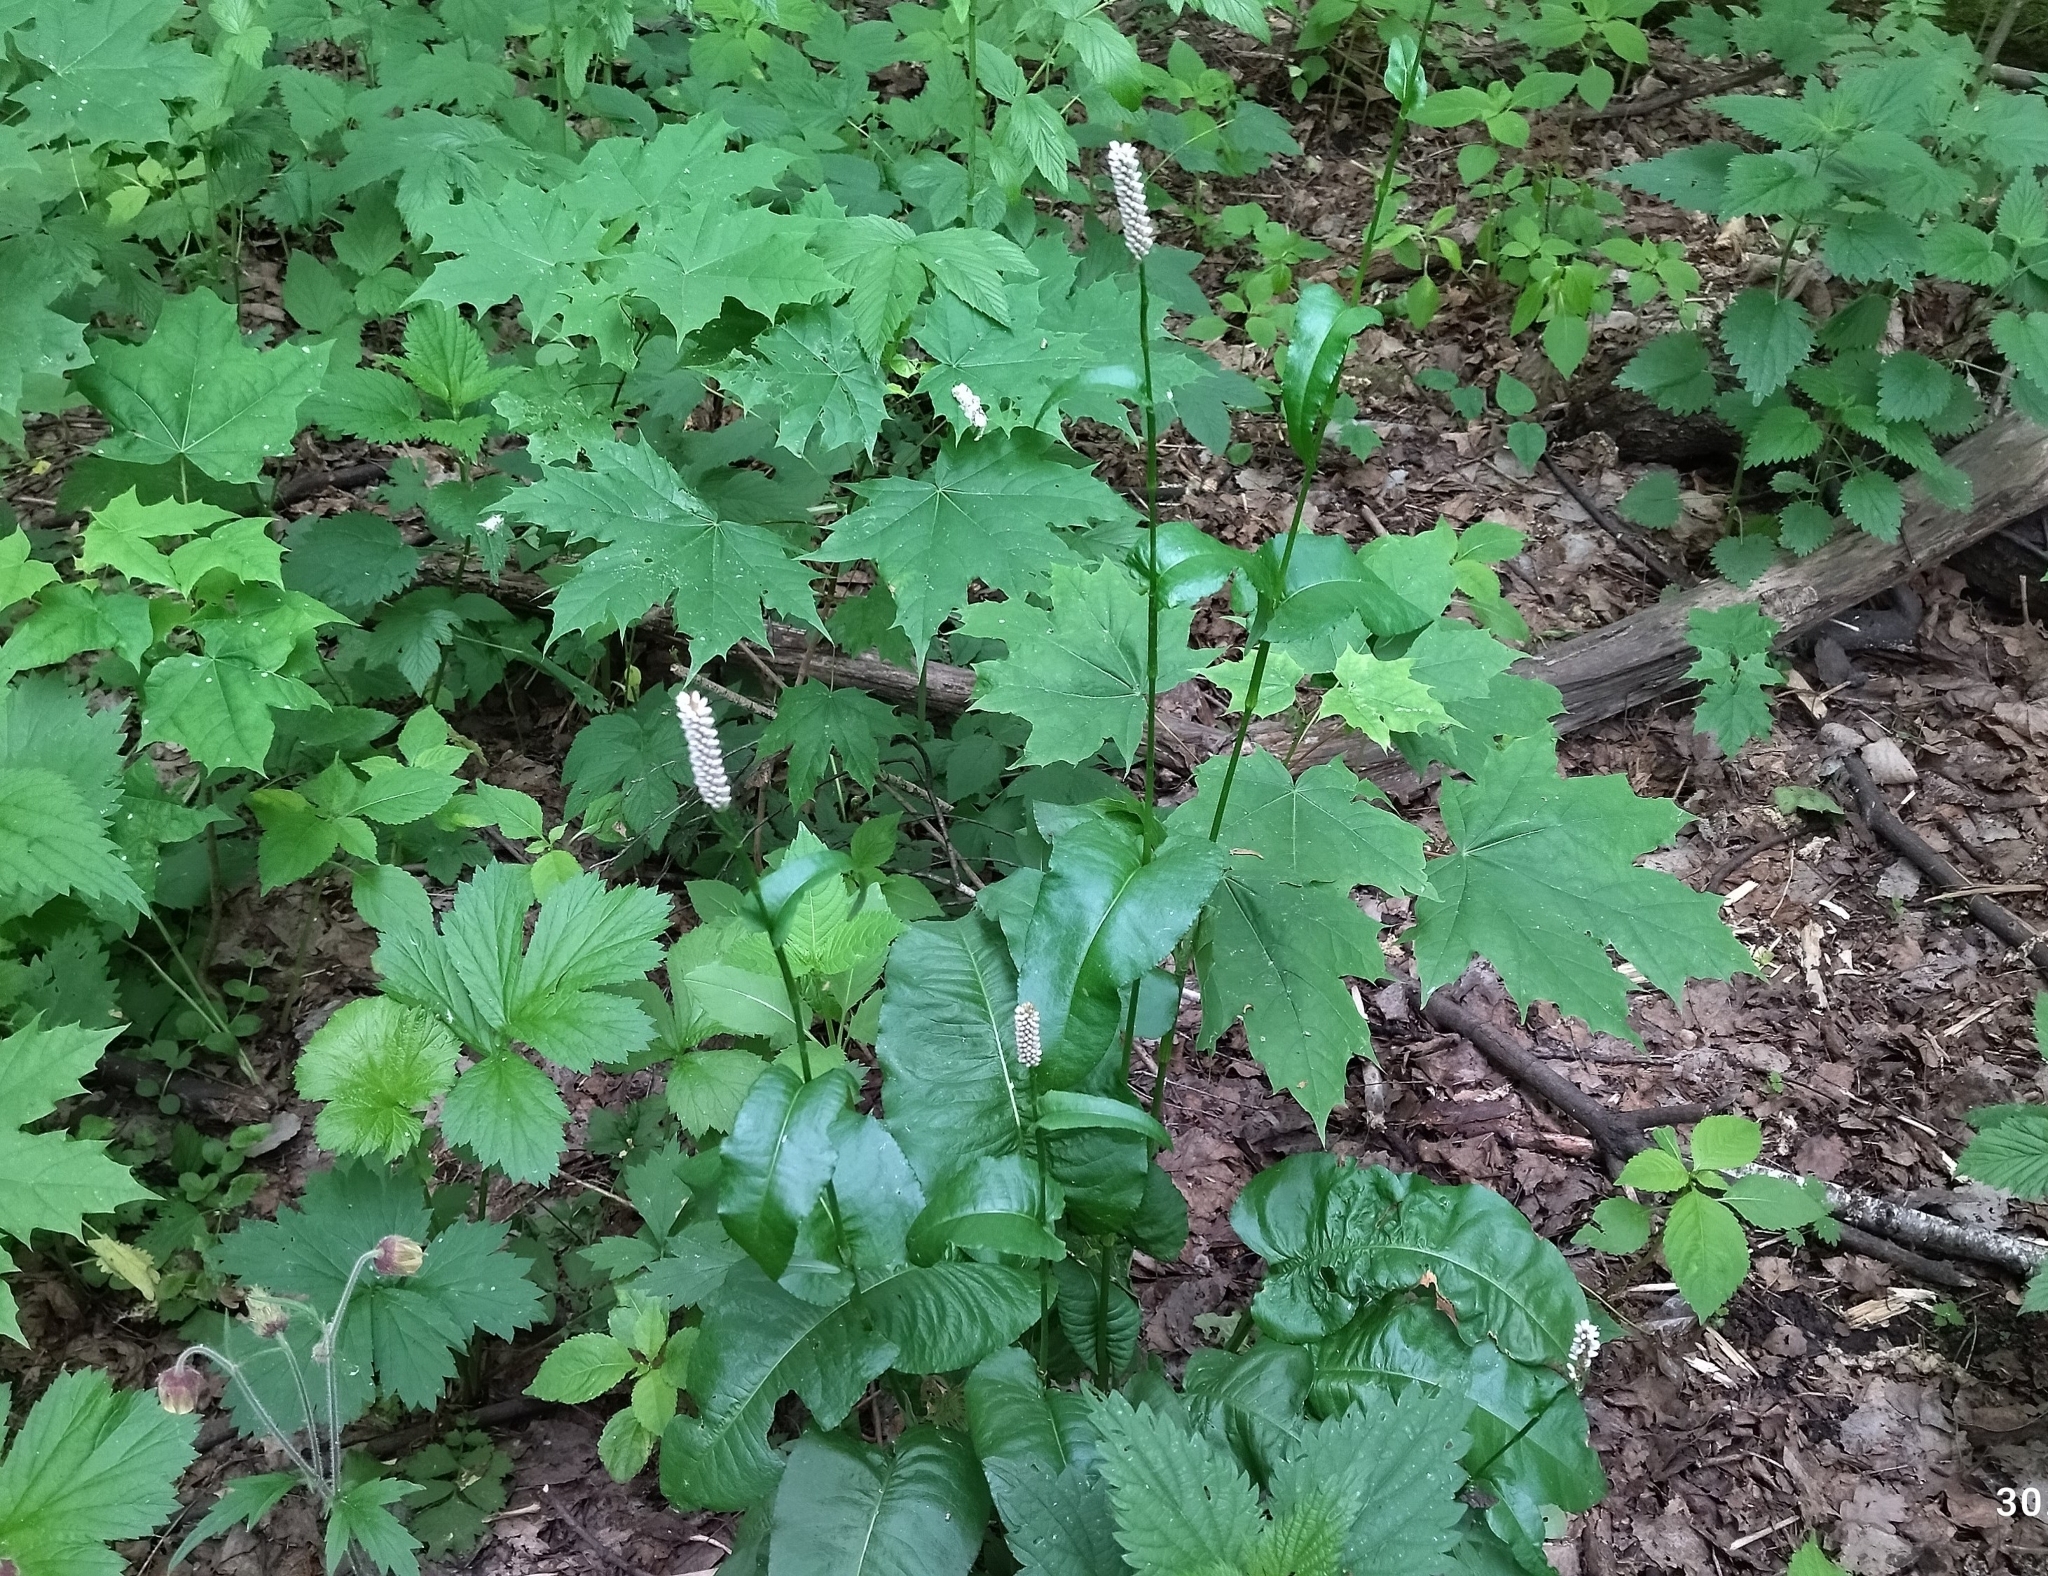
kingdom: Plantae
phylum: Tracheophyta
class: Magnoliopsida
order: Caryophyllales
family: Polygonaceae
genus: Bistorta
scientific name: Bistorta officinalis
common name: Common bistort
